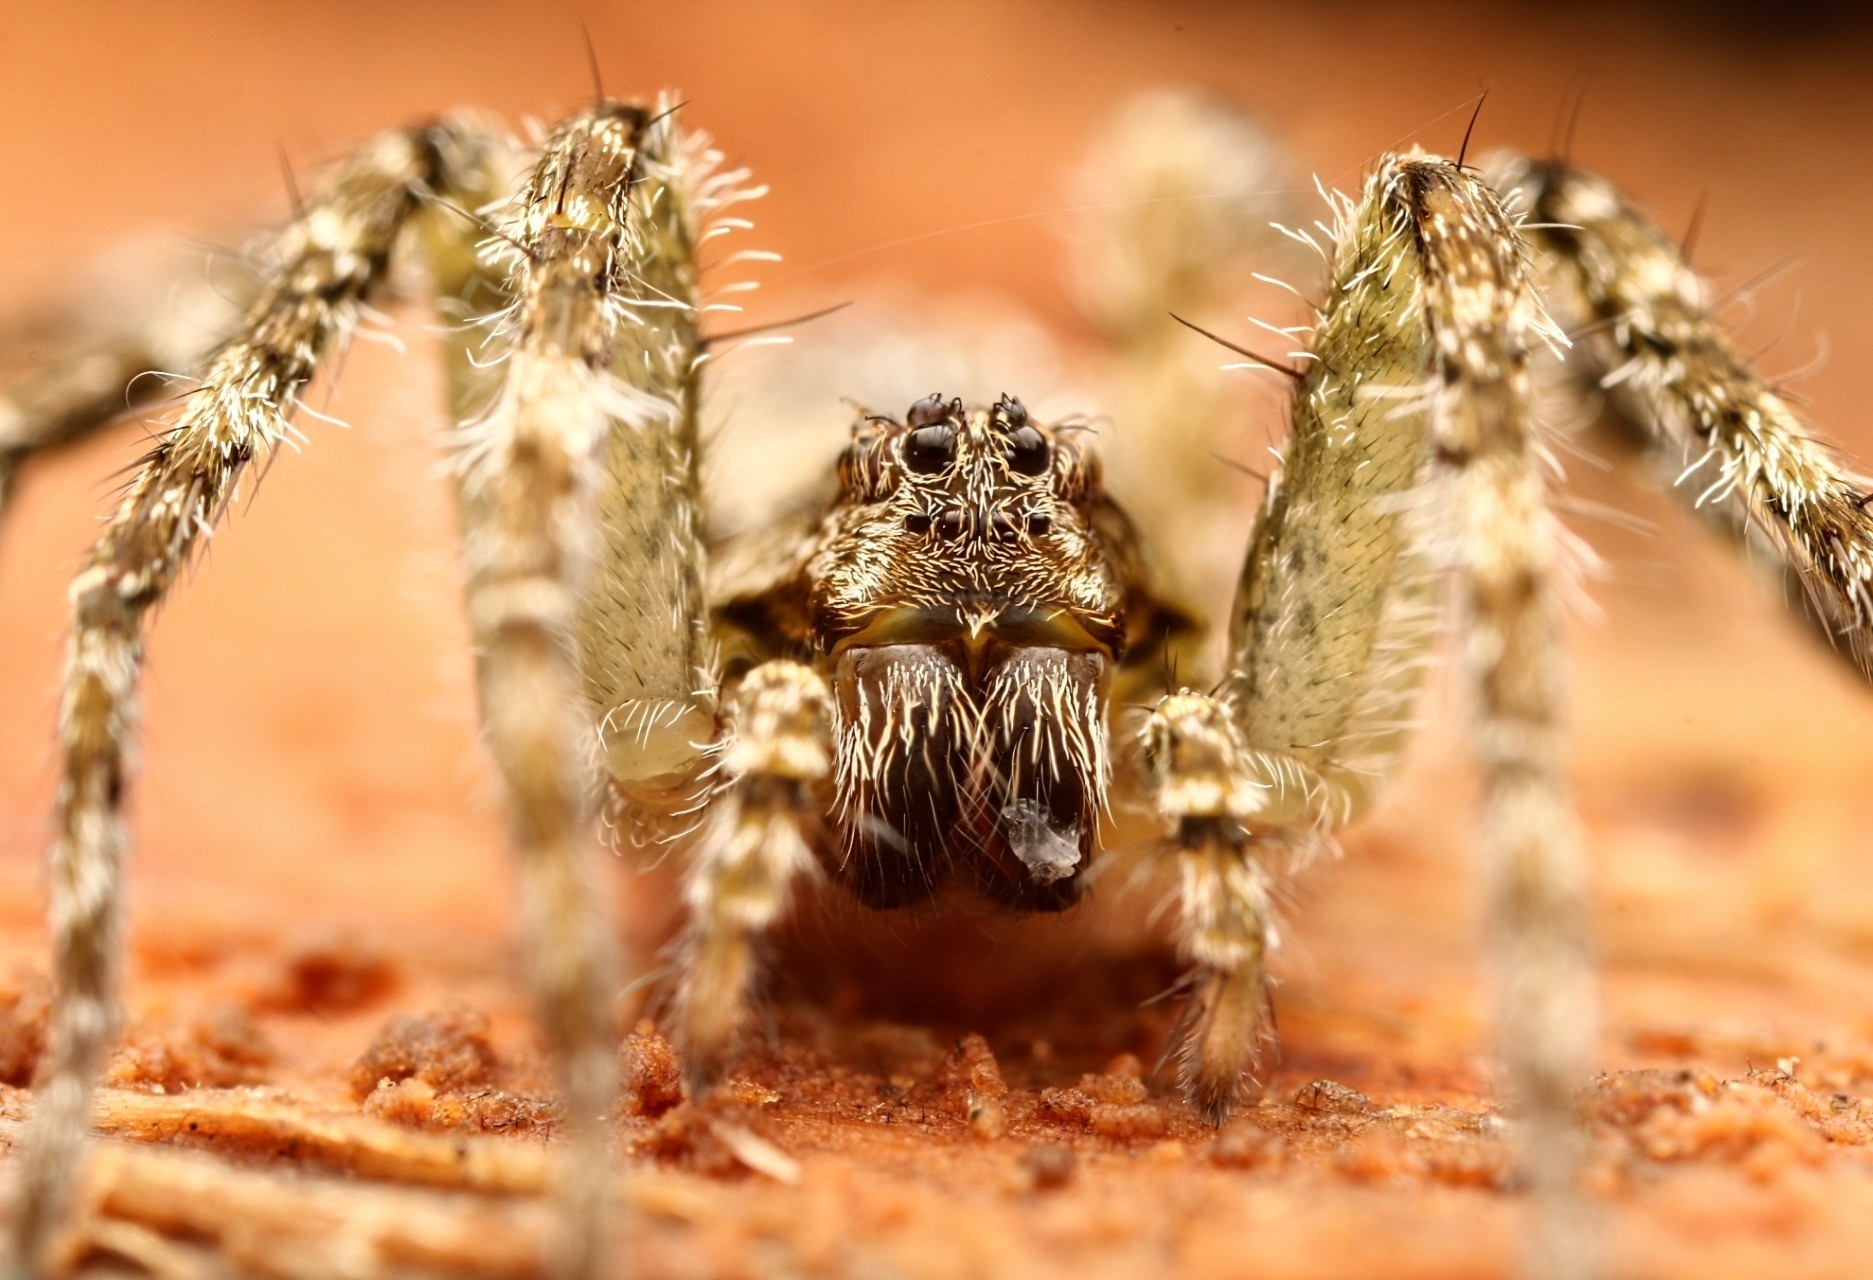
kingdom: Animalia
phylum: Arthropoda
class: Arachnida
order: Araneae
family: Pisauridae
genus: Dolomedes
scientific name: Dolomedes albineus
